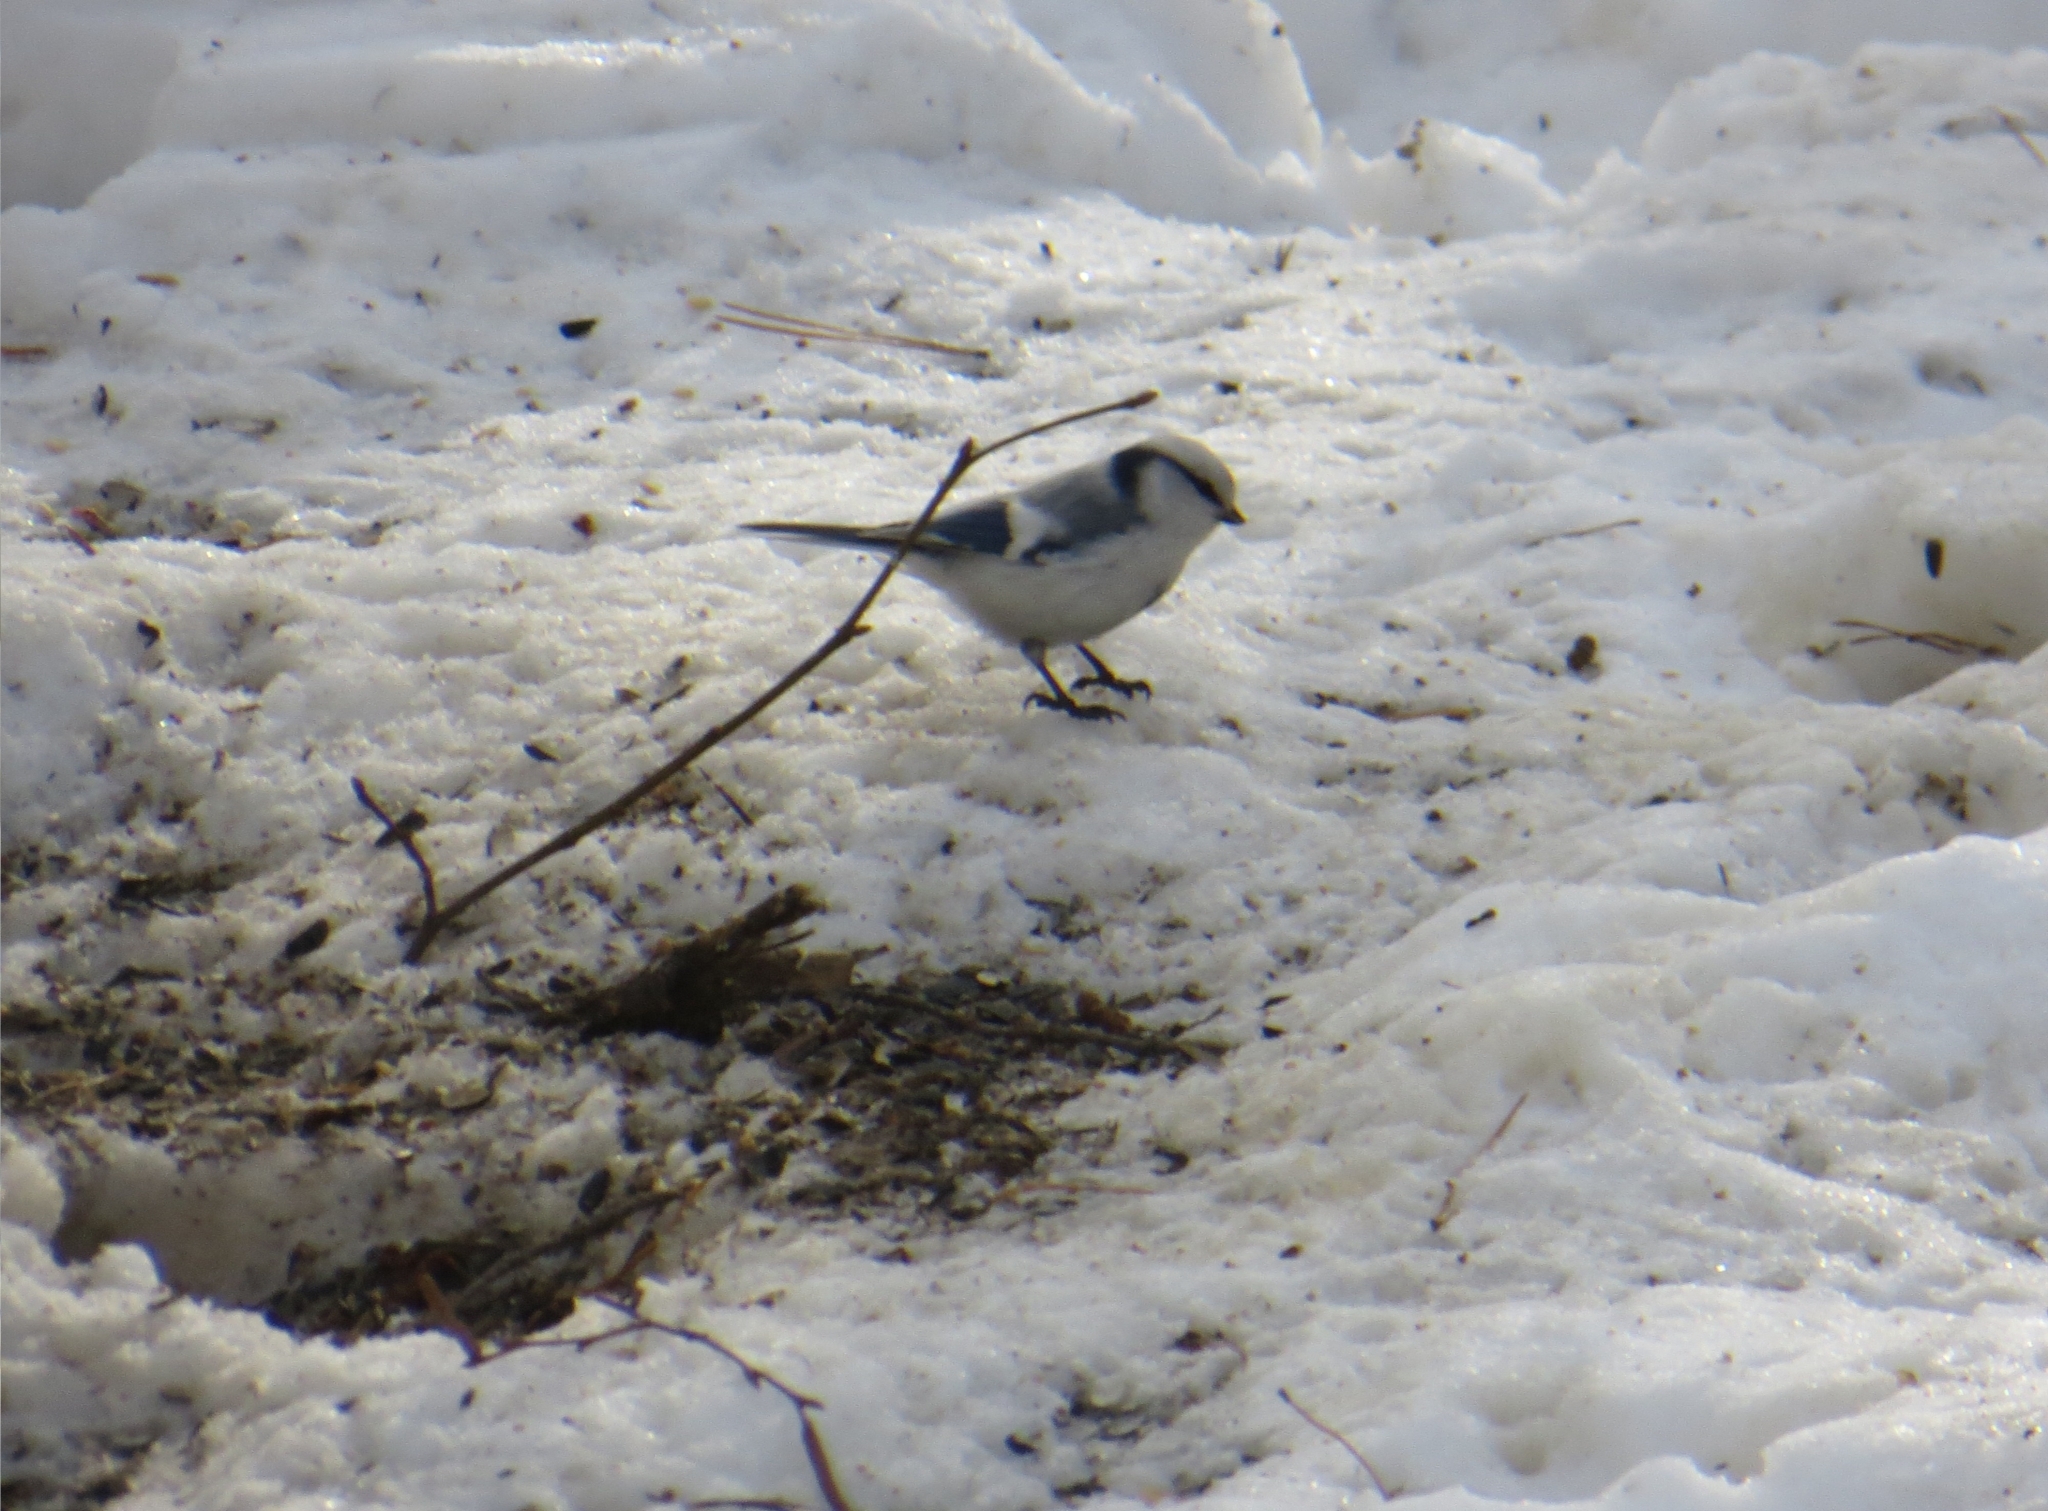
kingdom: Animalia
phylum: Chordata
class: Aves
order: Passeriformes
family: Paridae
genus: Cyanistes
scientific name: Cyanistes cyanus
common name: Azure tit
